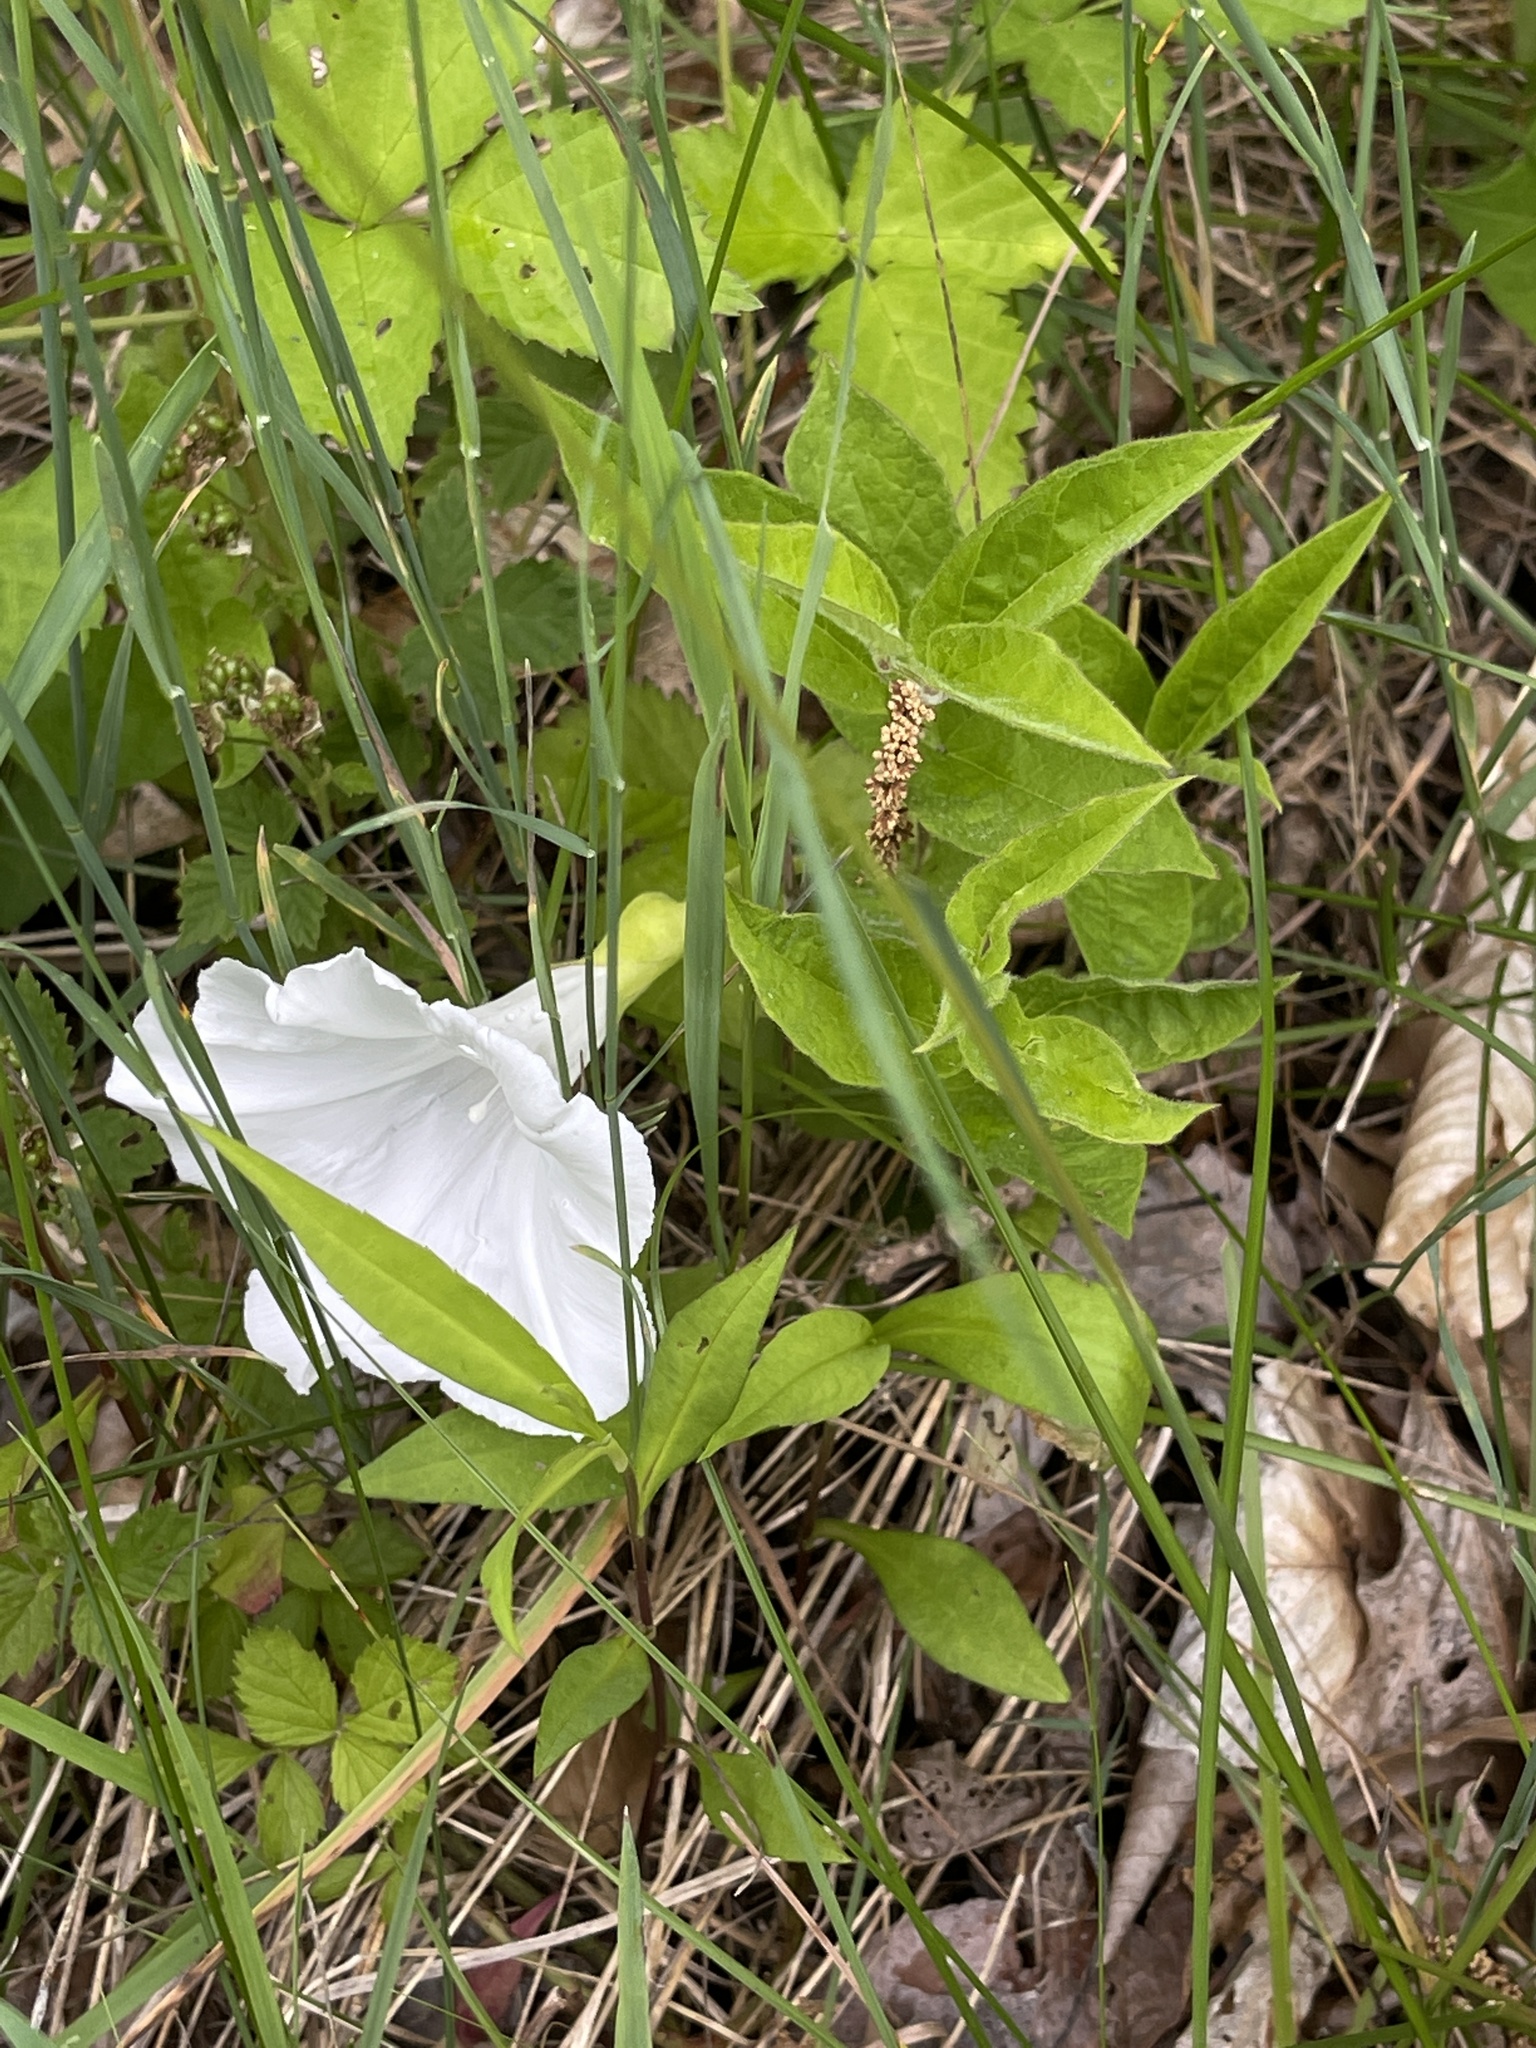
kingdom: Plantae
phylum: Tracheophyta
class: Magnoliopsida
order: Solanales
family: Convolvulaceae
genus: Calystegia
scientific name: Calystegia spithamaea
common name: Dwarf bindweed
